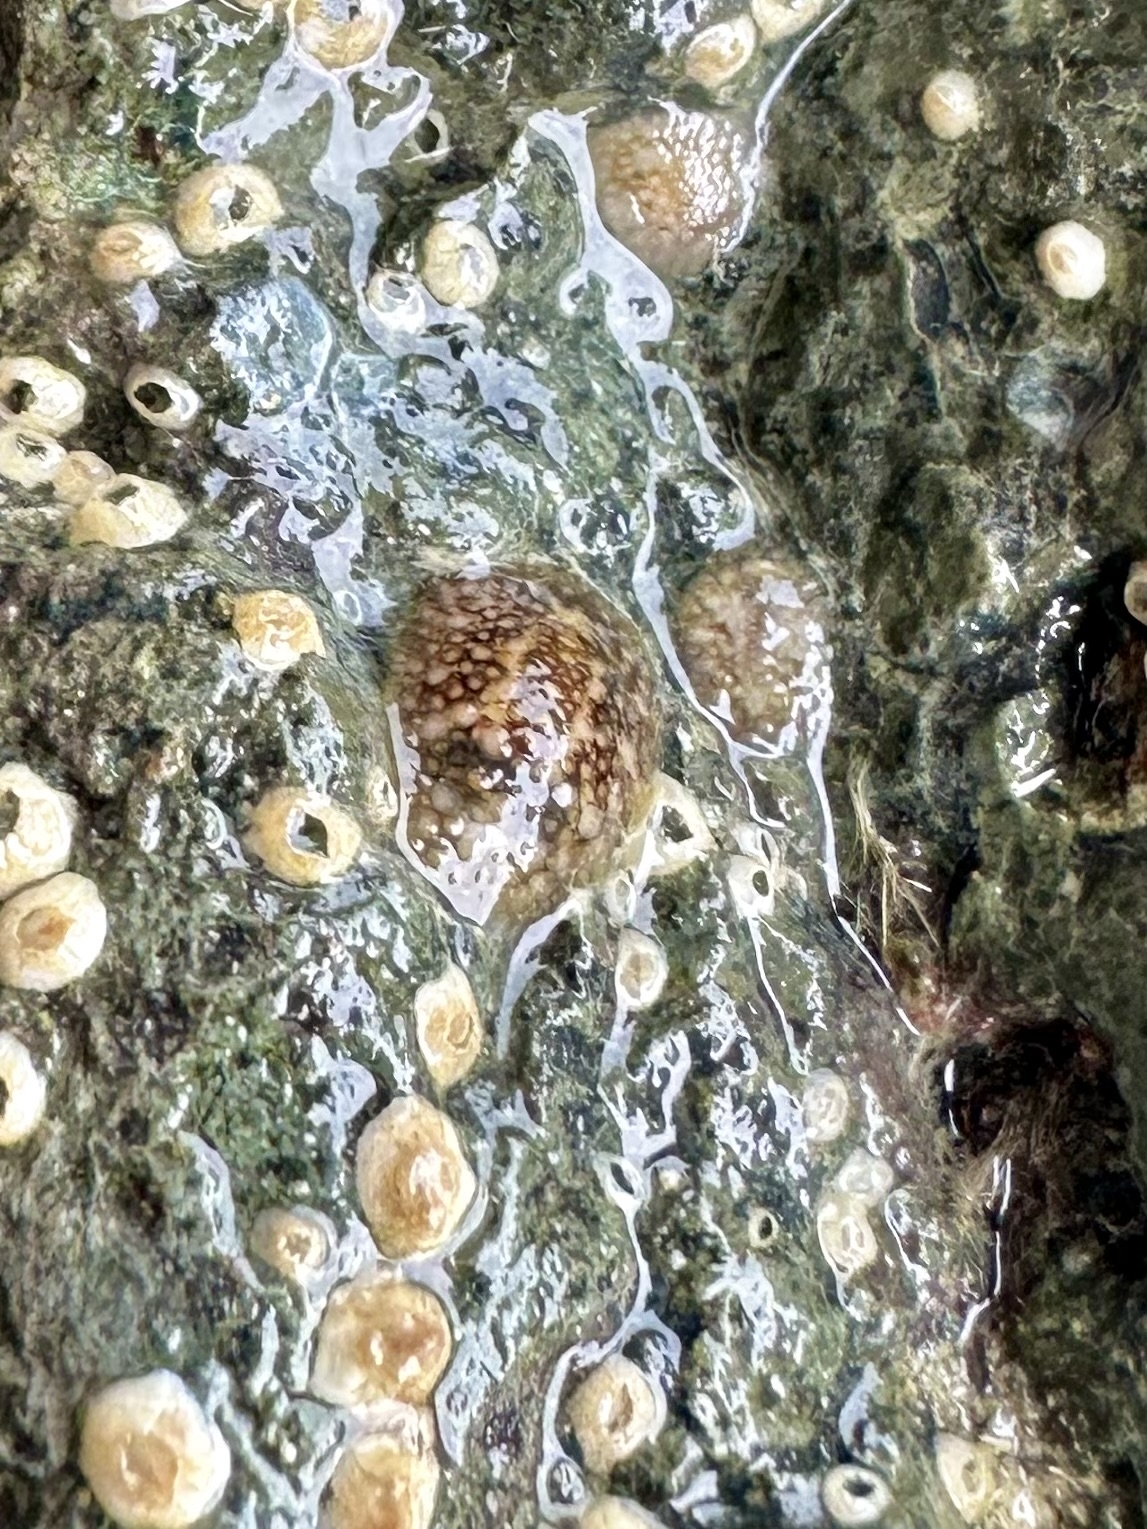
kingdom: Animalia
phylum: Mollusca
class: Gastropoda
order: Nudibranchia
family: Onchidorididae
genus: Onchidoris
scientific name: Onchidoris bilamellata
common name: Barnacle-eating onchidoris
